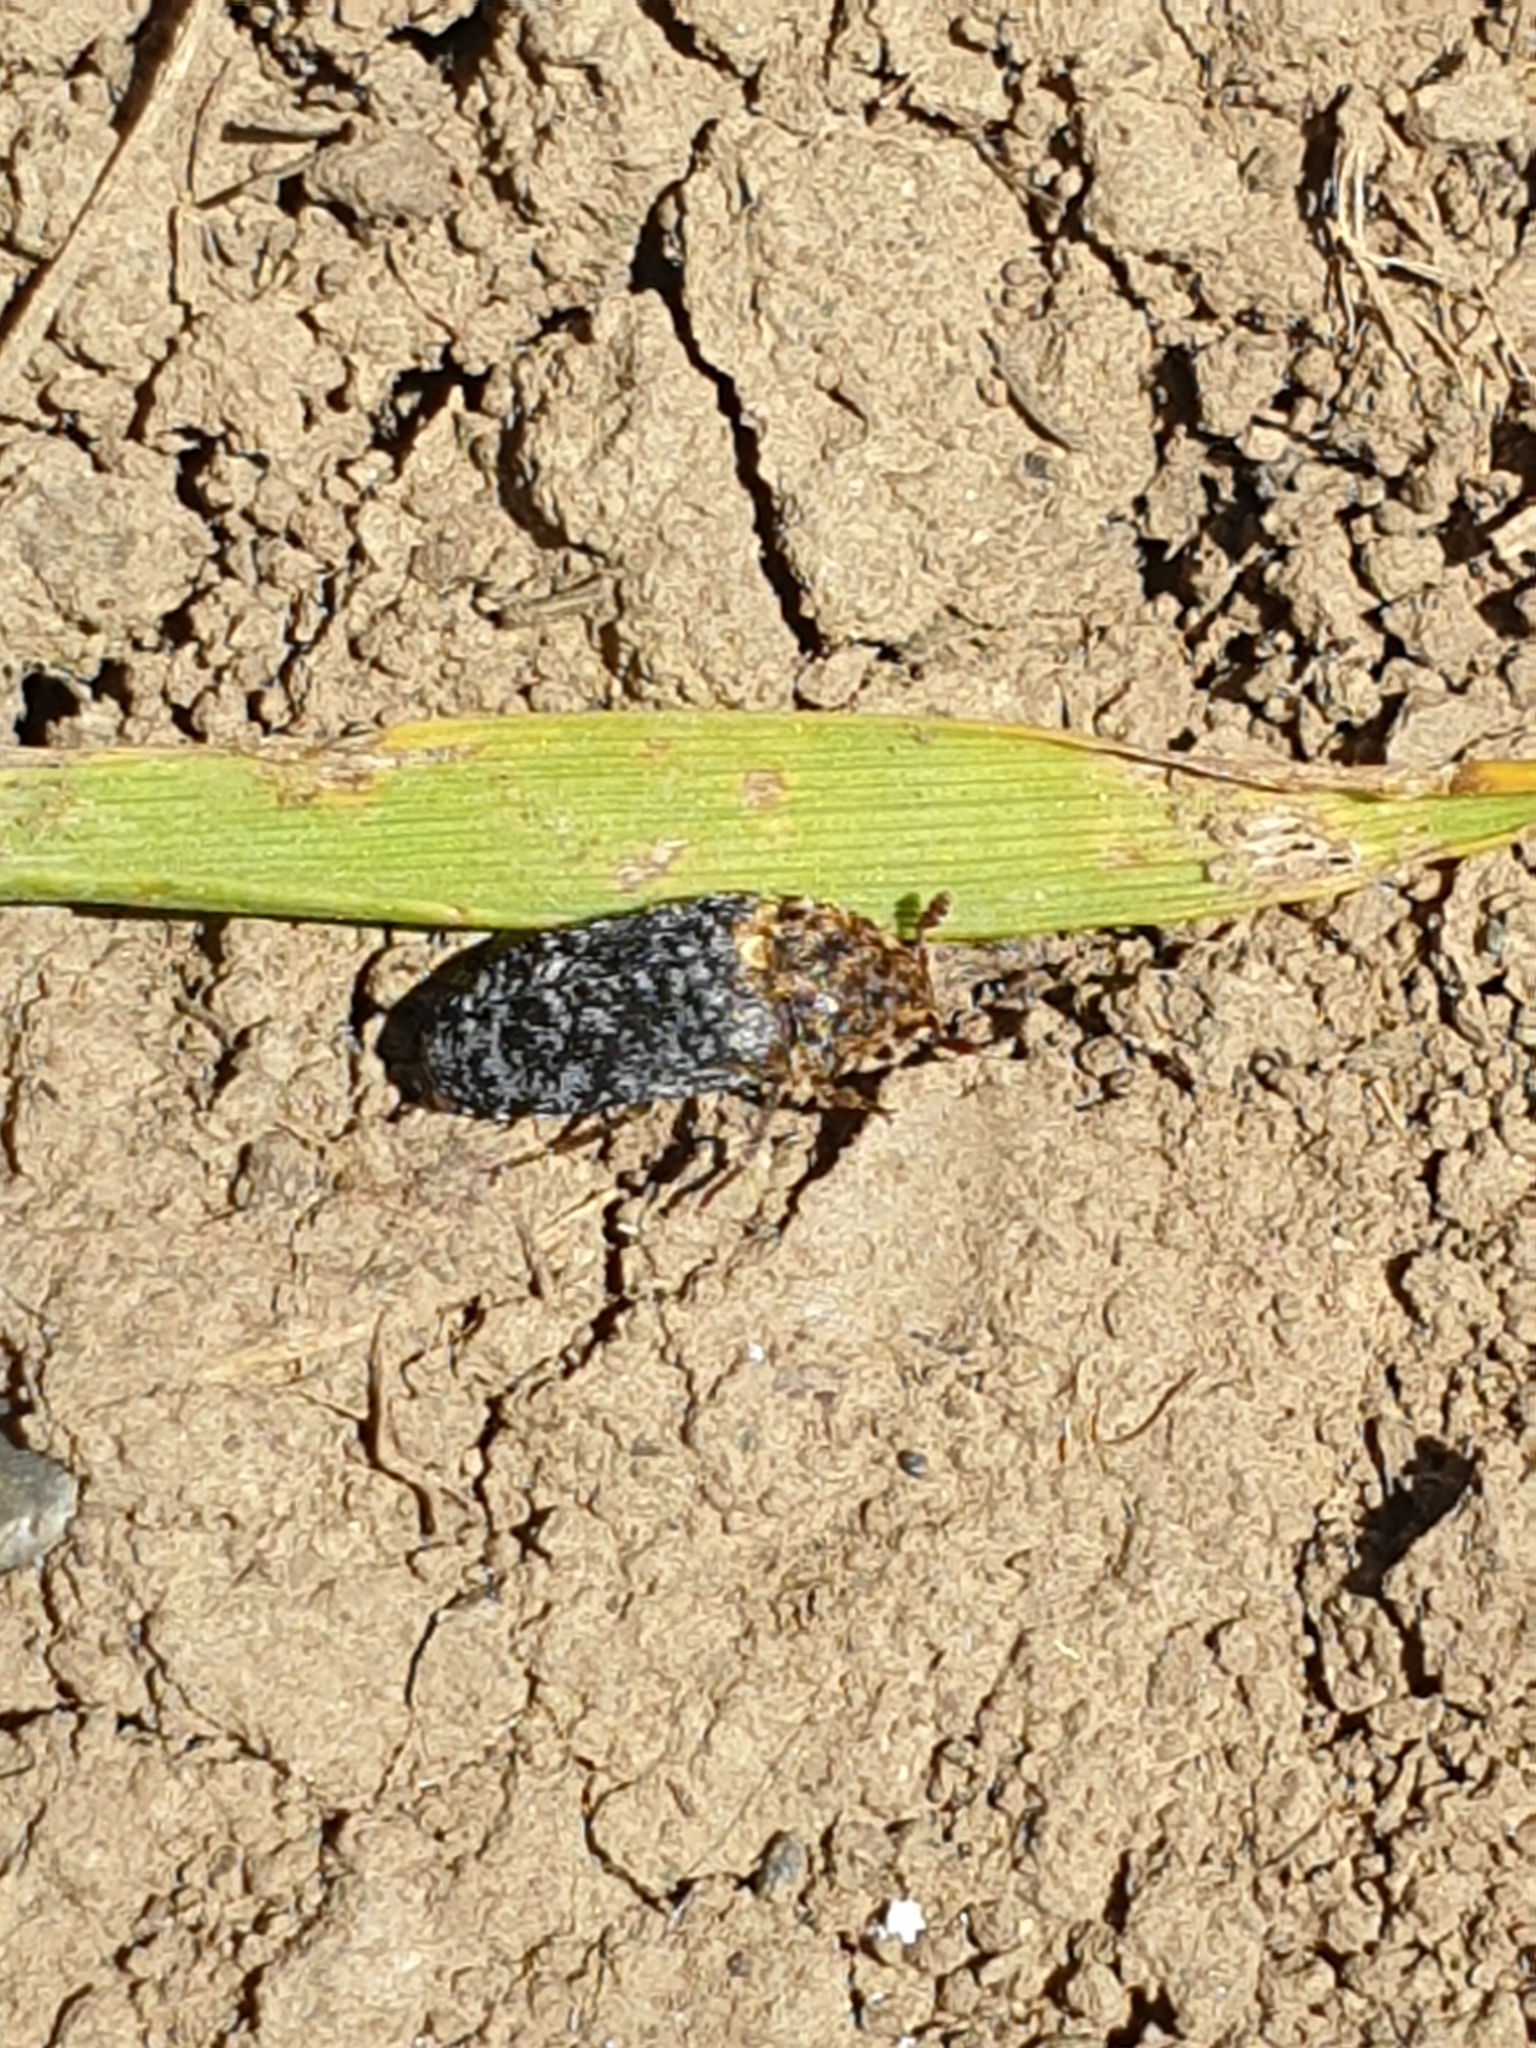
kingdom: Animalia
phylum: Arthropoda
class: Insecta
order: Coleoptera
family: Dermestidae
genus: Dermestes
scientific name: Dermestes undulatus
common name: Wavy carpet beetle
